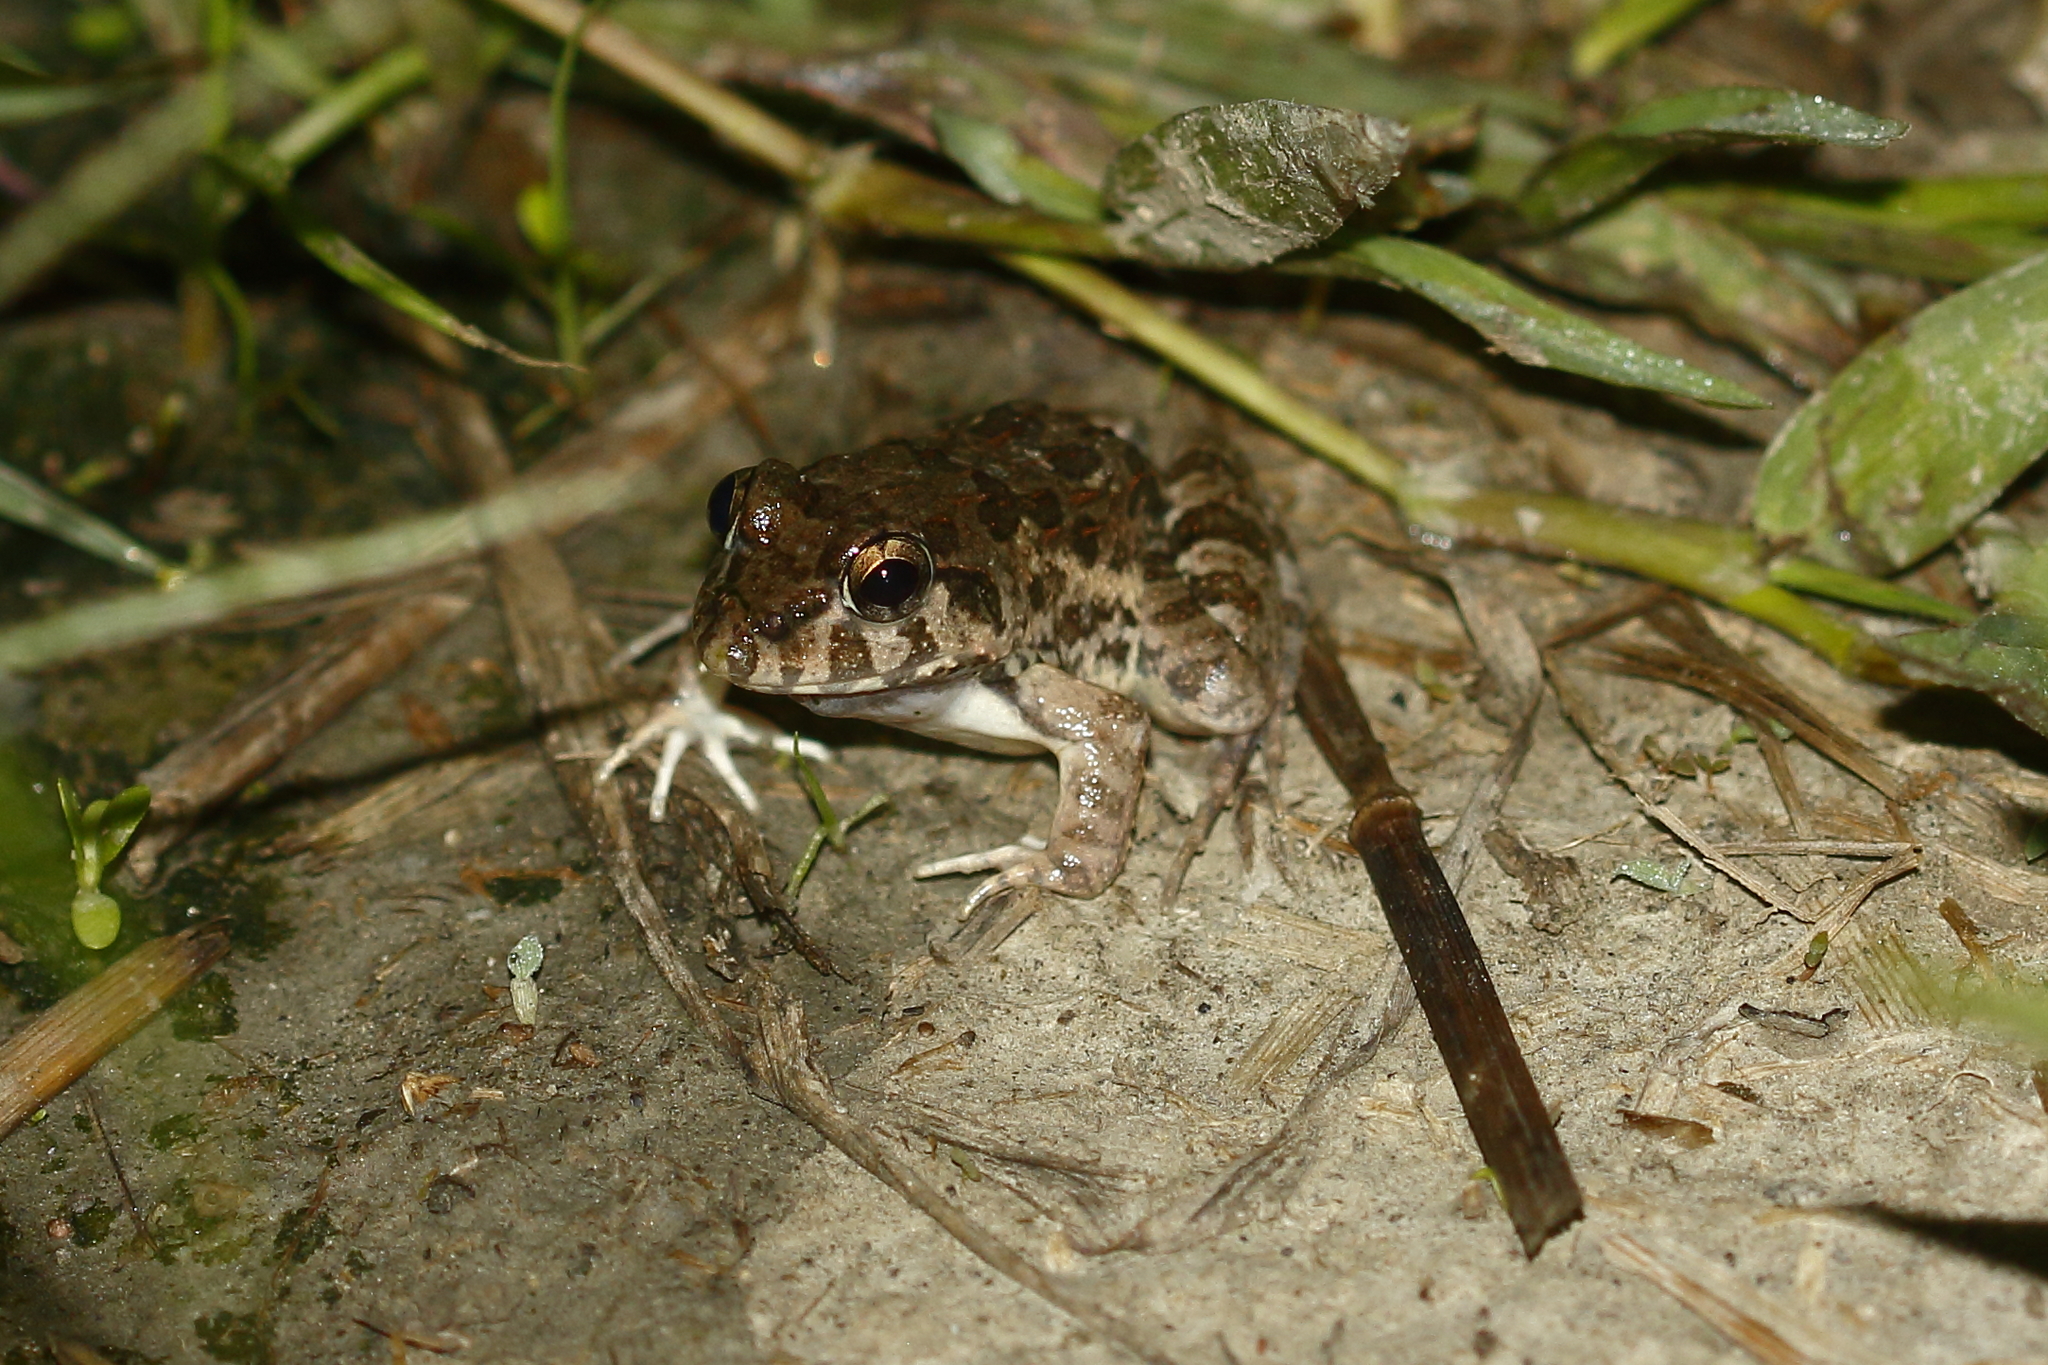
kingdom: Animalia
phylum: Chordata
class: Amphibia
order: Anura
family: Dicroglossidae
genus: Fejervarya
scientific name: Fejervarya limnocharis
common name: Asian grass frog/common pond frog/field frog/grass frog/indian rice frog
